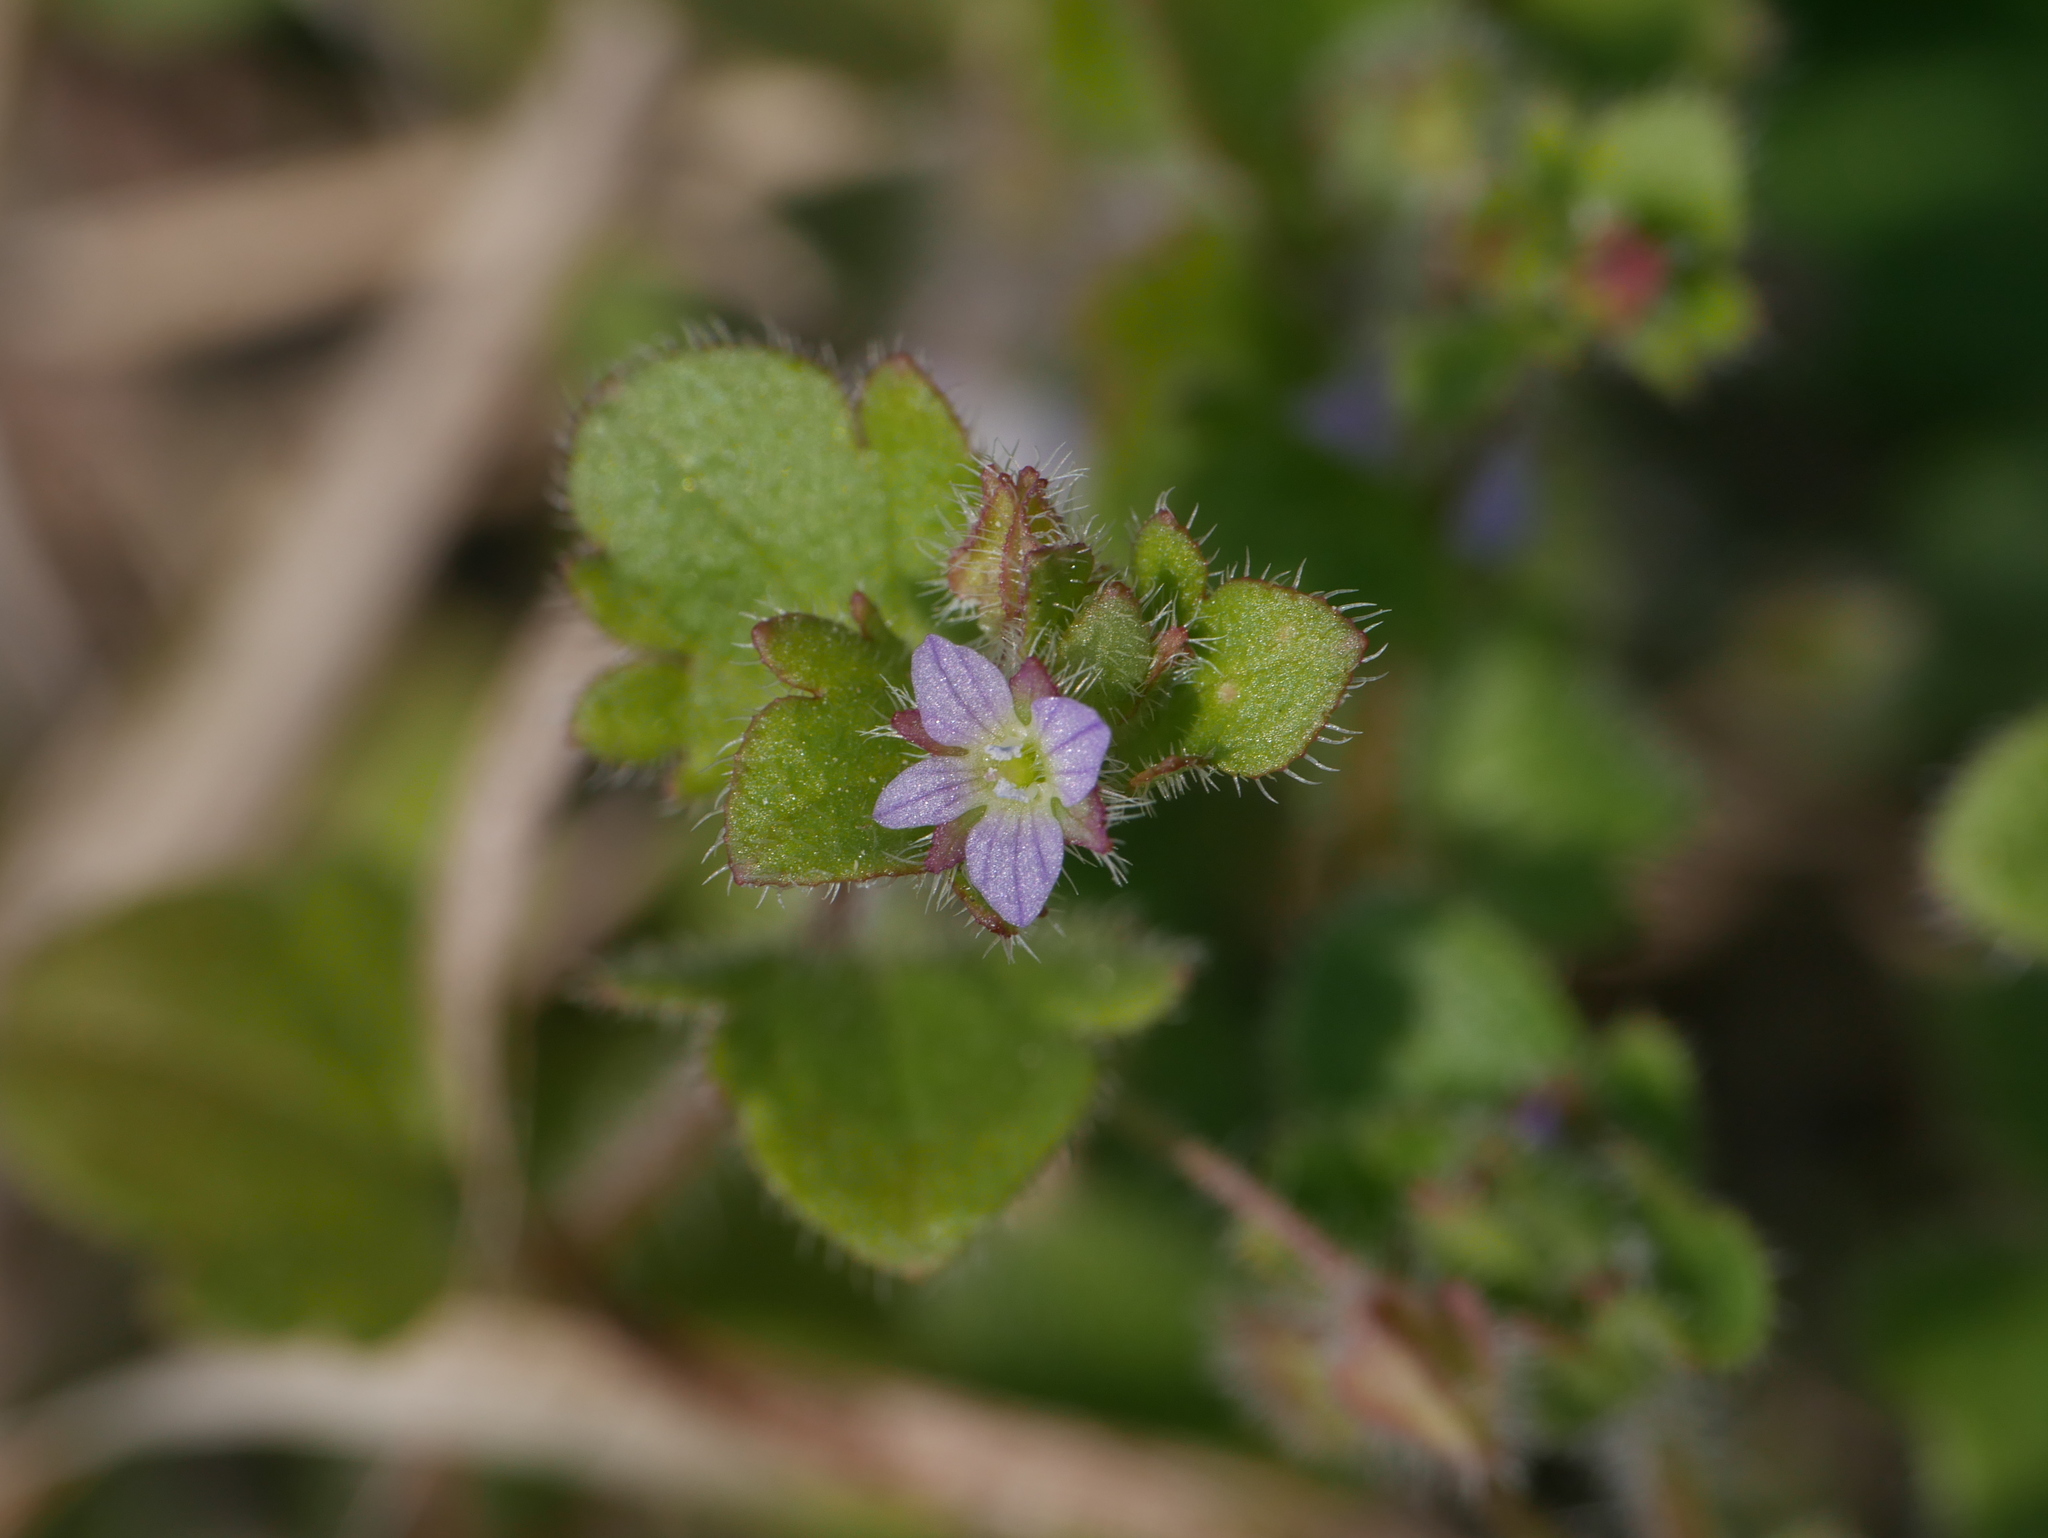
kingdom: Plantae
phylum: Tracheophyta
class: Magnoliopsida
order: Lamiales
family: Plantaginaceae
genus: Veronica
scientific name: Veronica sublobata
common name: False ivy-leaved speedwell
